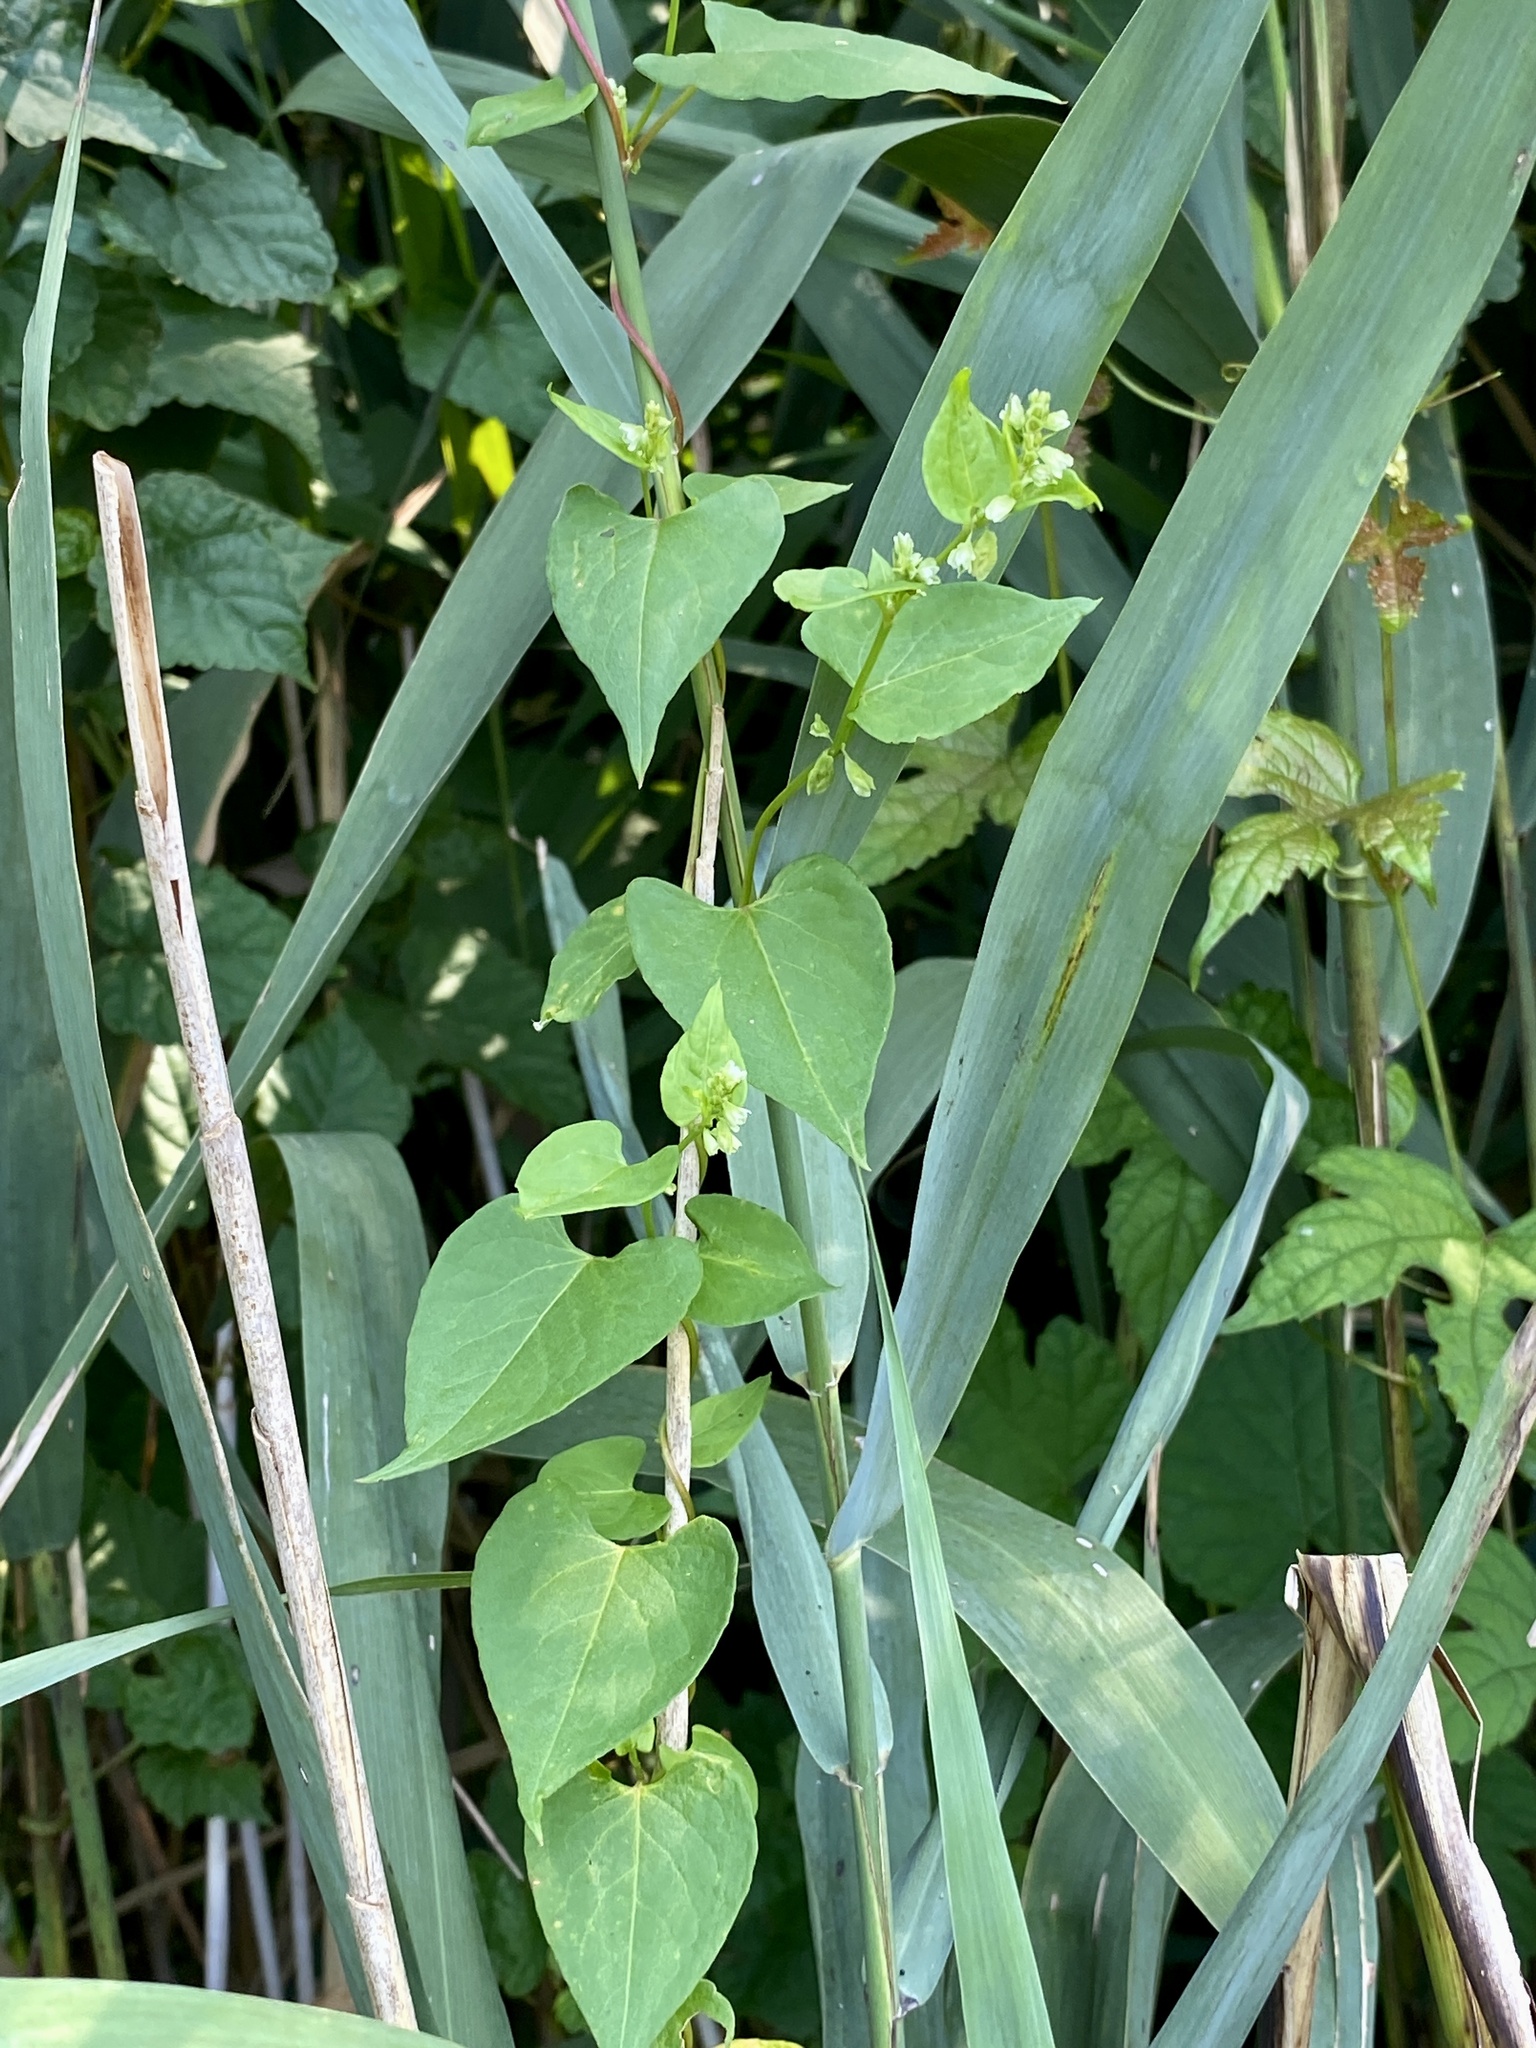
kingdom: Plantae
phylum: Tracheophyta
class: Magnoliopsida
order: Caryophyllales
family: Polygonaceae
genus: Fallopia
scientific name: Fallopia scandens
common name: Climbing false buckwheat
